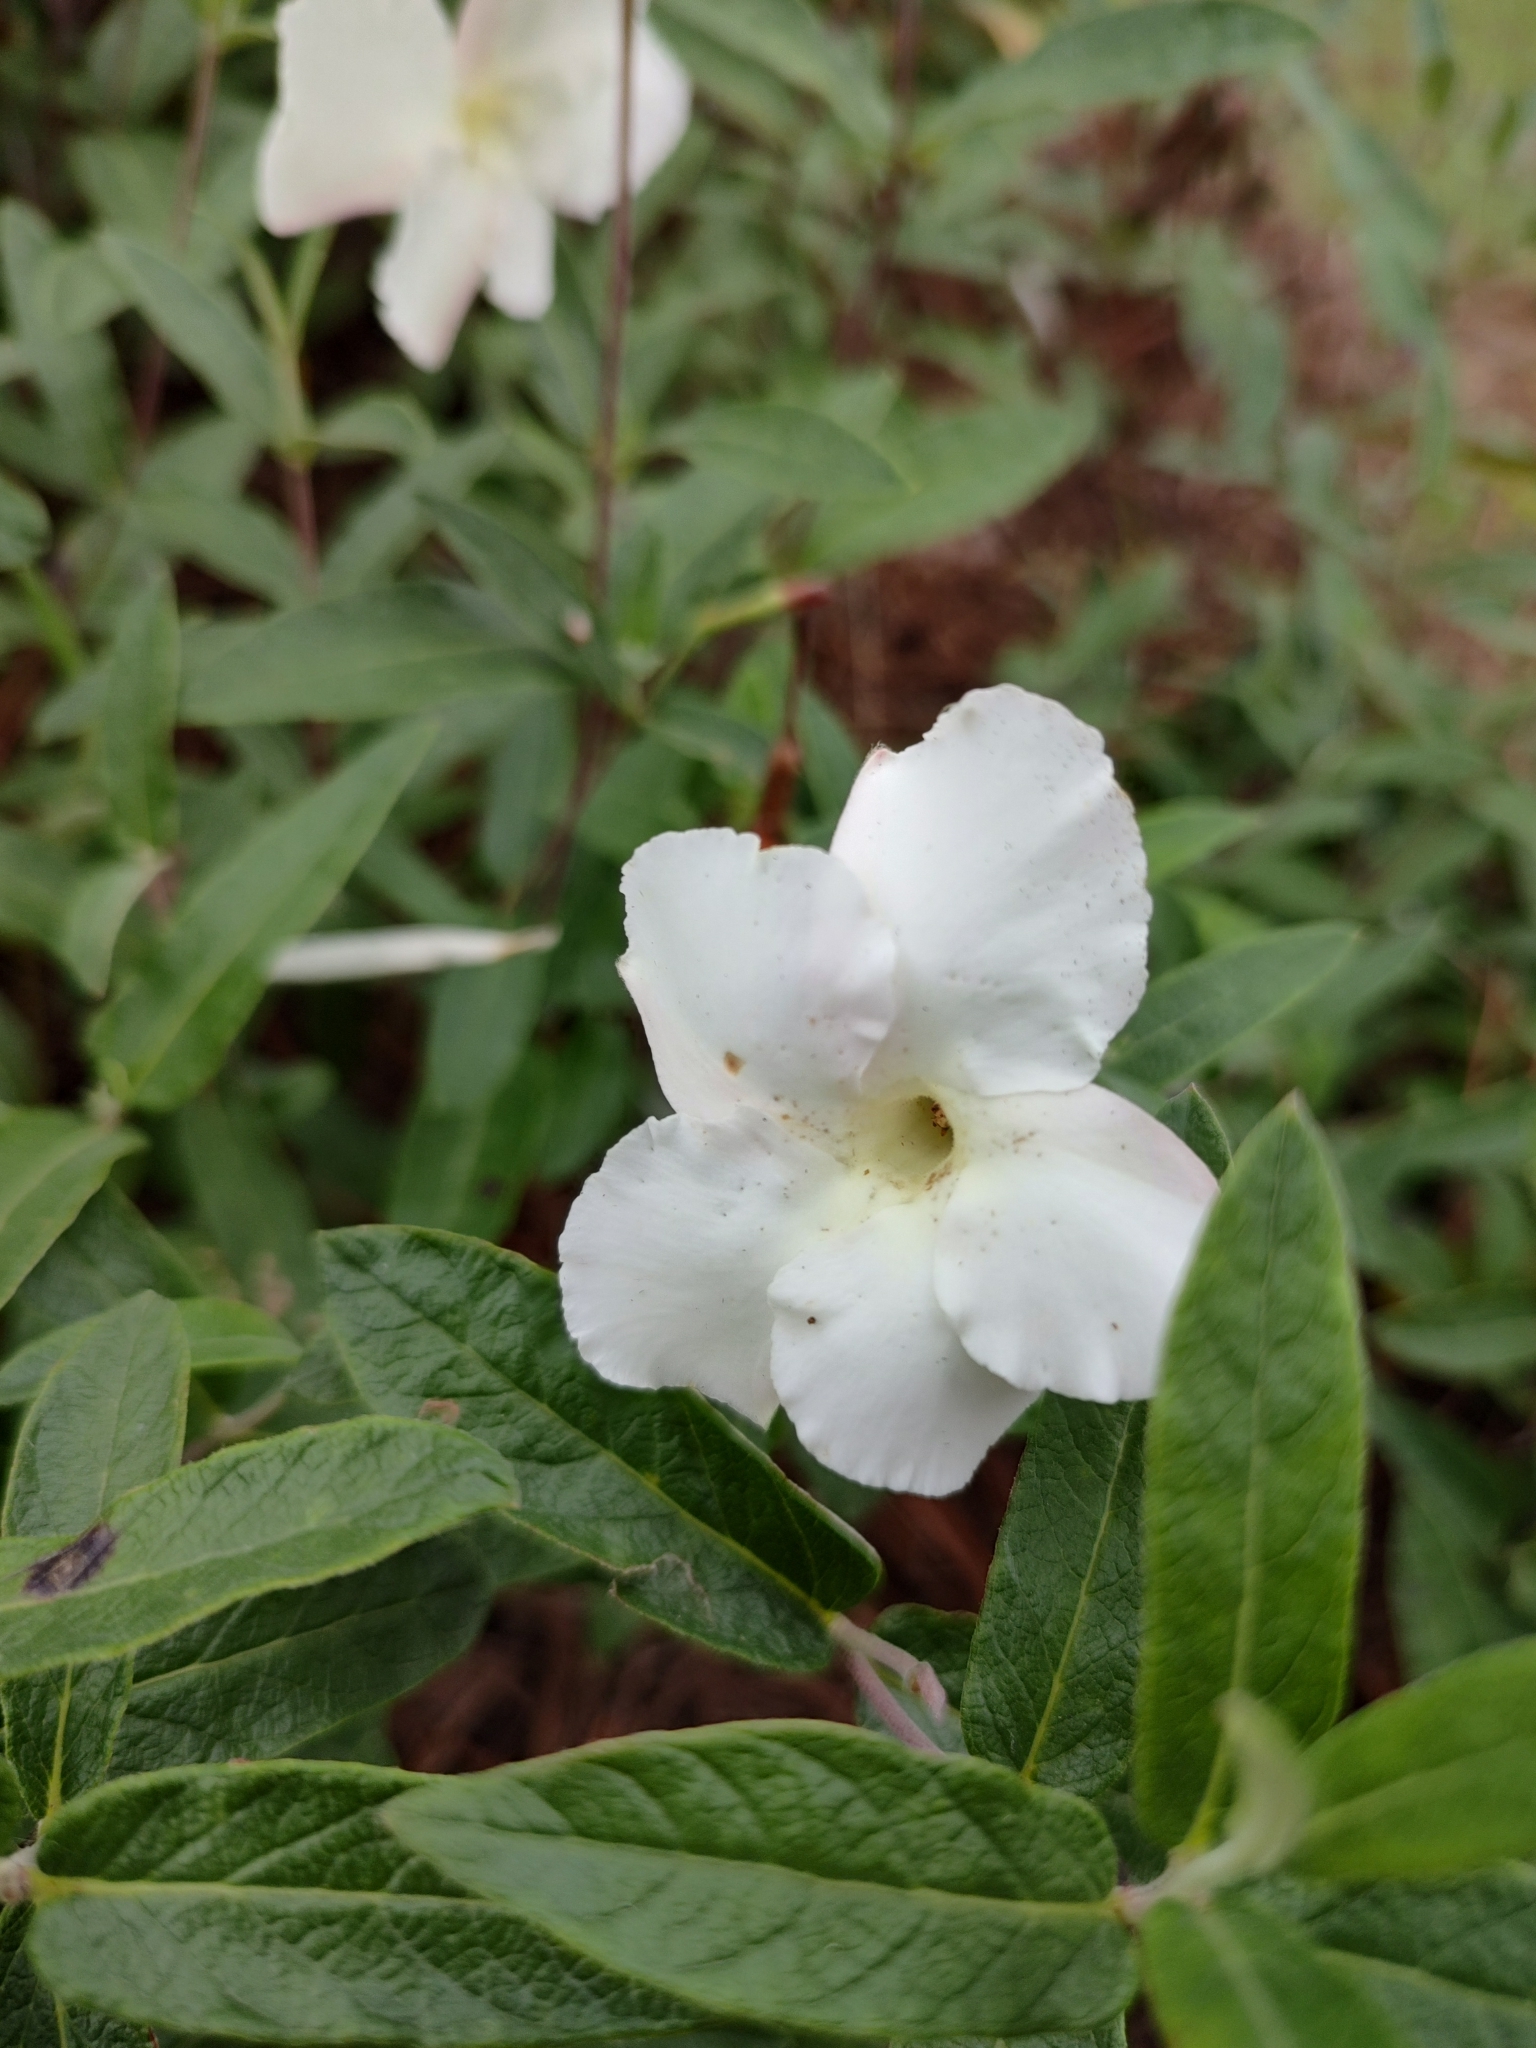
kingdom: Plantae
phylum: Tracheophyta
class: Magnoliopsida
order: Gentianales
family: Apocynaceae
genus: Mandevilla
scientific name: Mandevilla hypoleuca
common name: Davis mountain rocktrumpet
